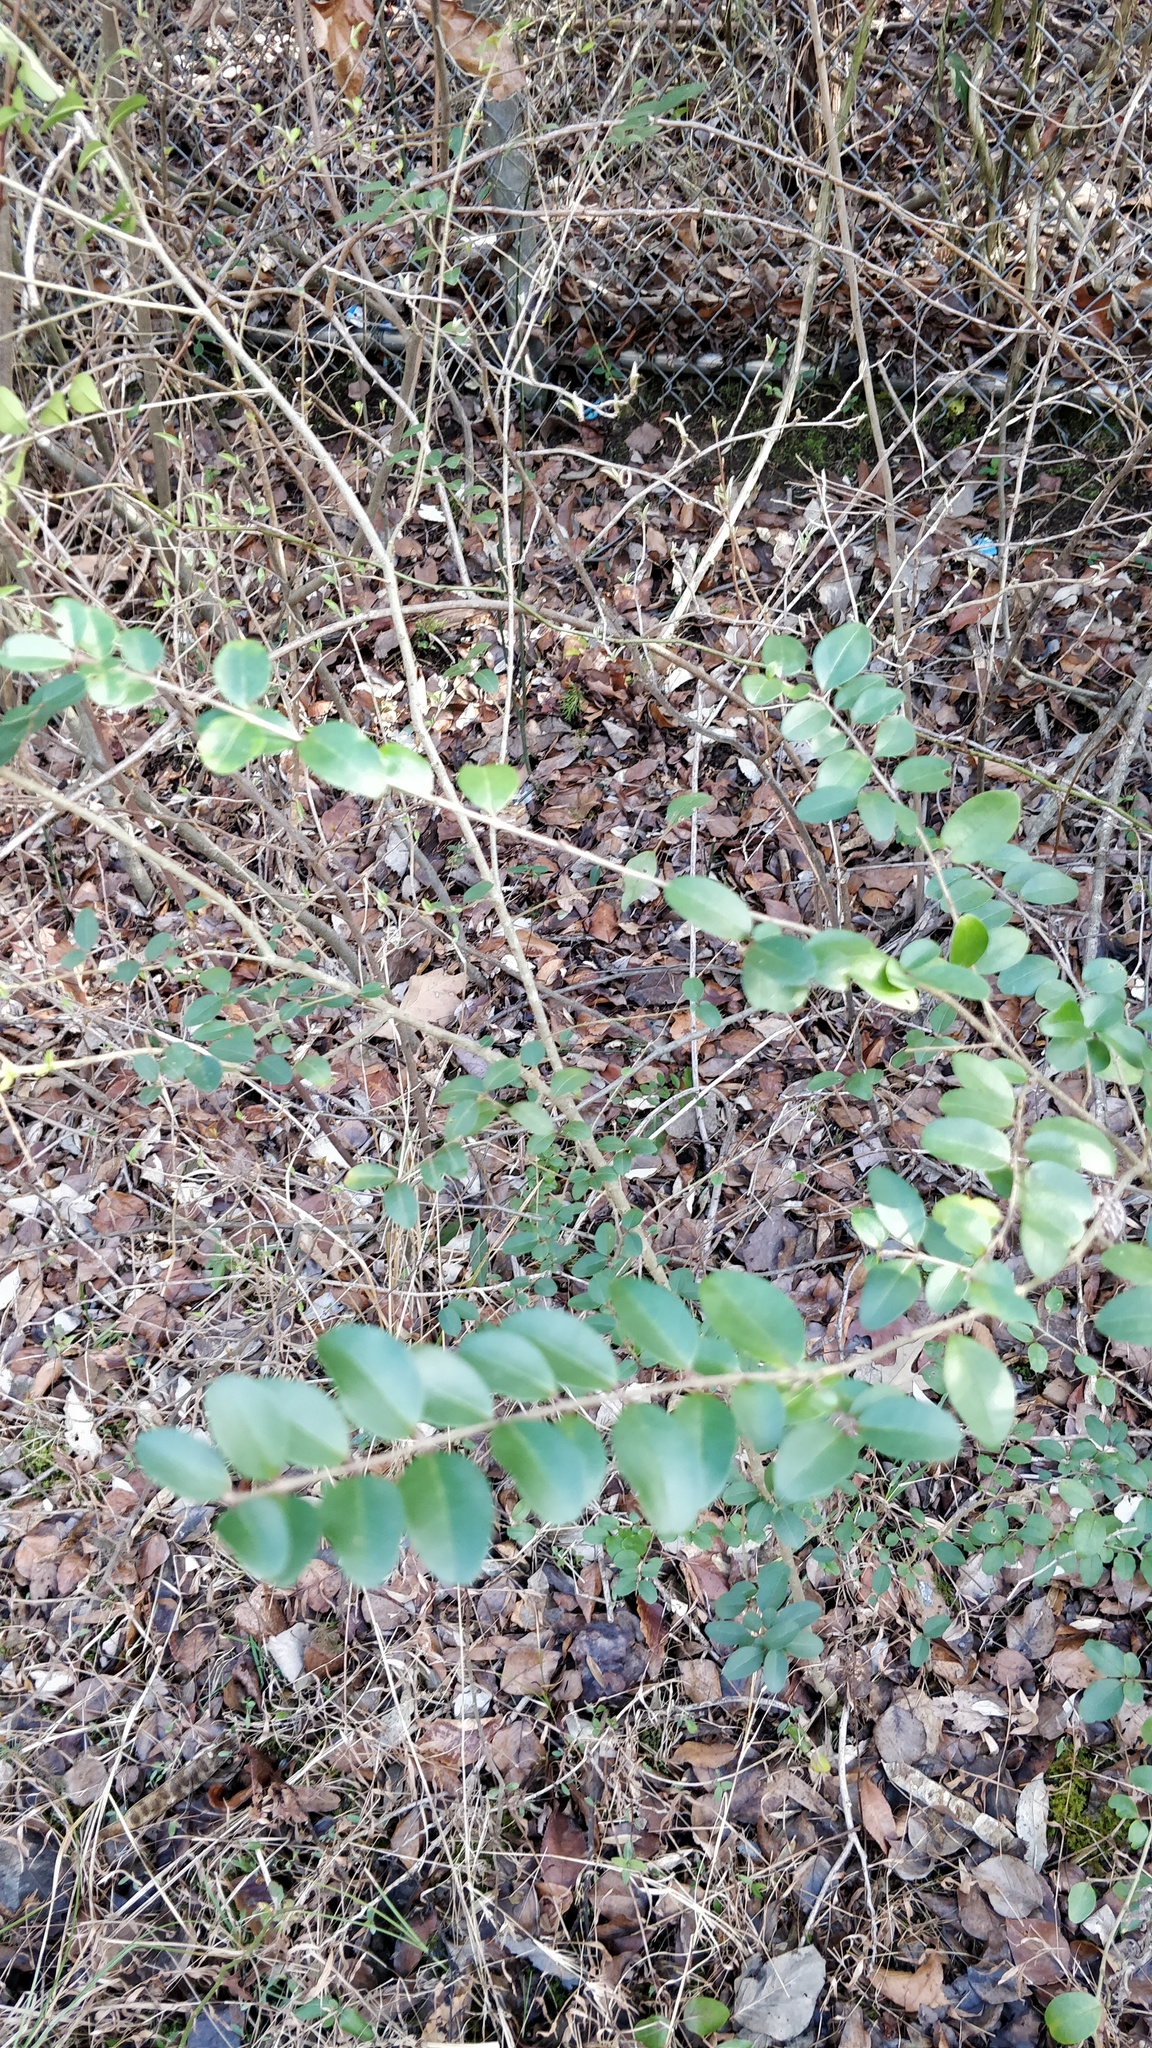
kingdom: Plantae
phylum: Tracheophyta
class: Magnoliopsida
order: Lamiales
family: Oleaceae
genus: Ligustrum
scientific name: Ligustrum sinense
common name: Chinese privet
